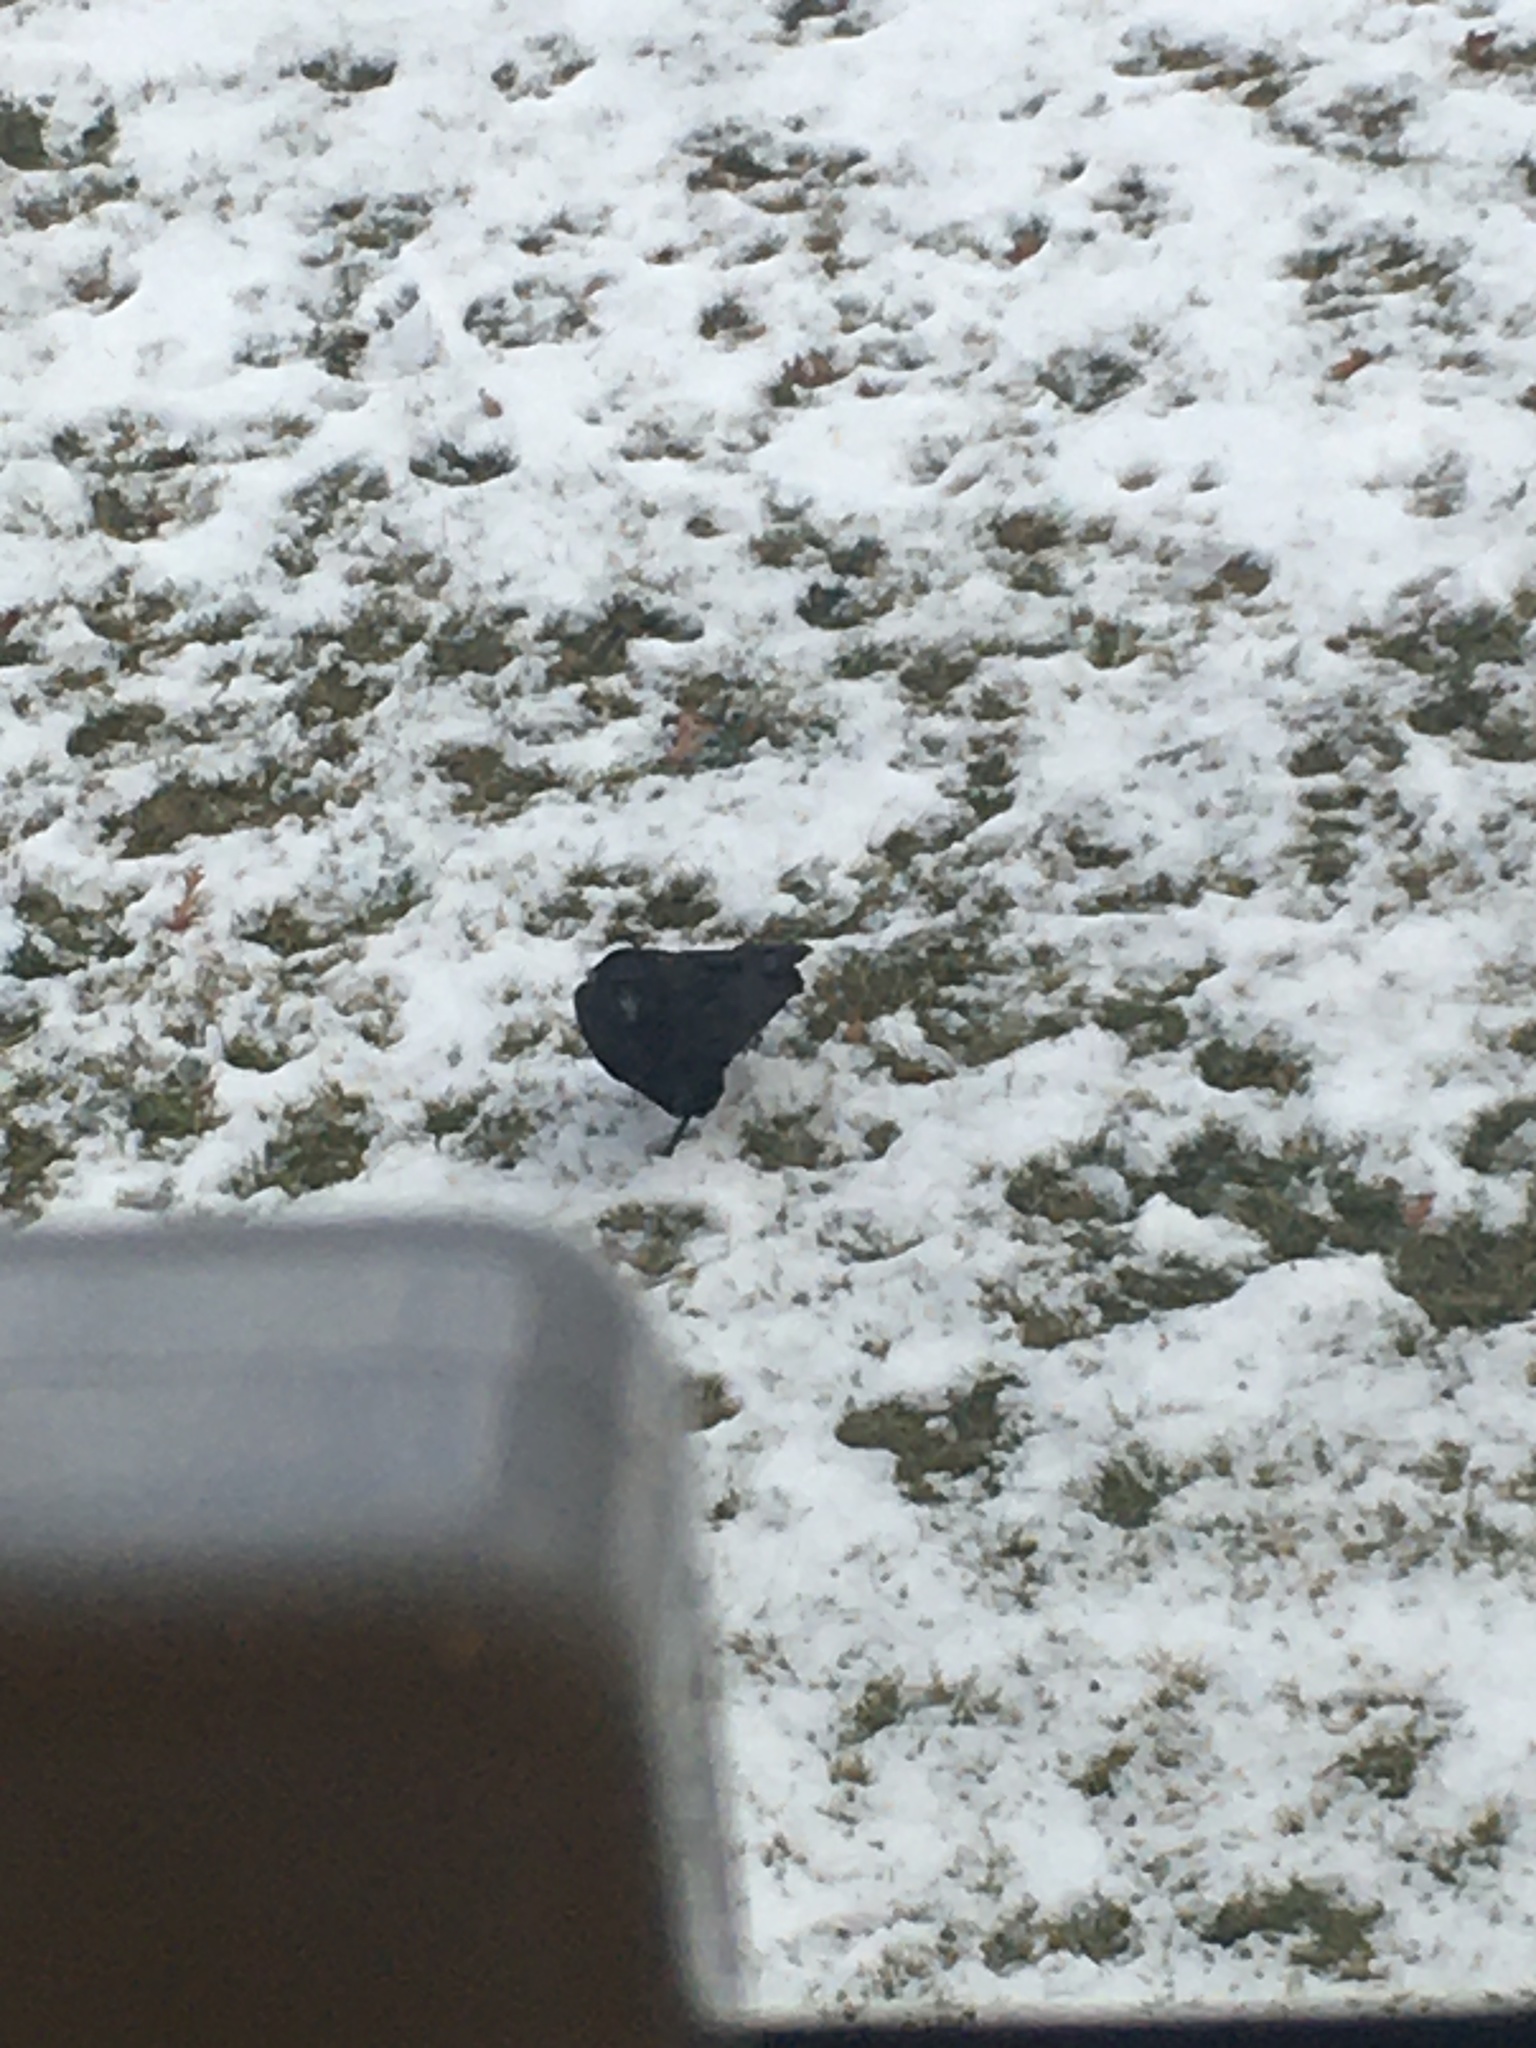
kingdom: Animalia
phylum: Chordata
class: Aves
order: Passeriformes
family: Corvidae
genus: Corvus
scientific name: Corvus brachyrhynchos
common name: American crow
